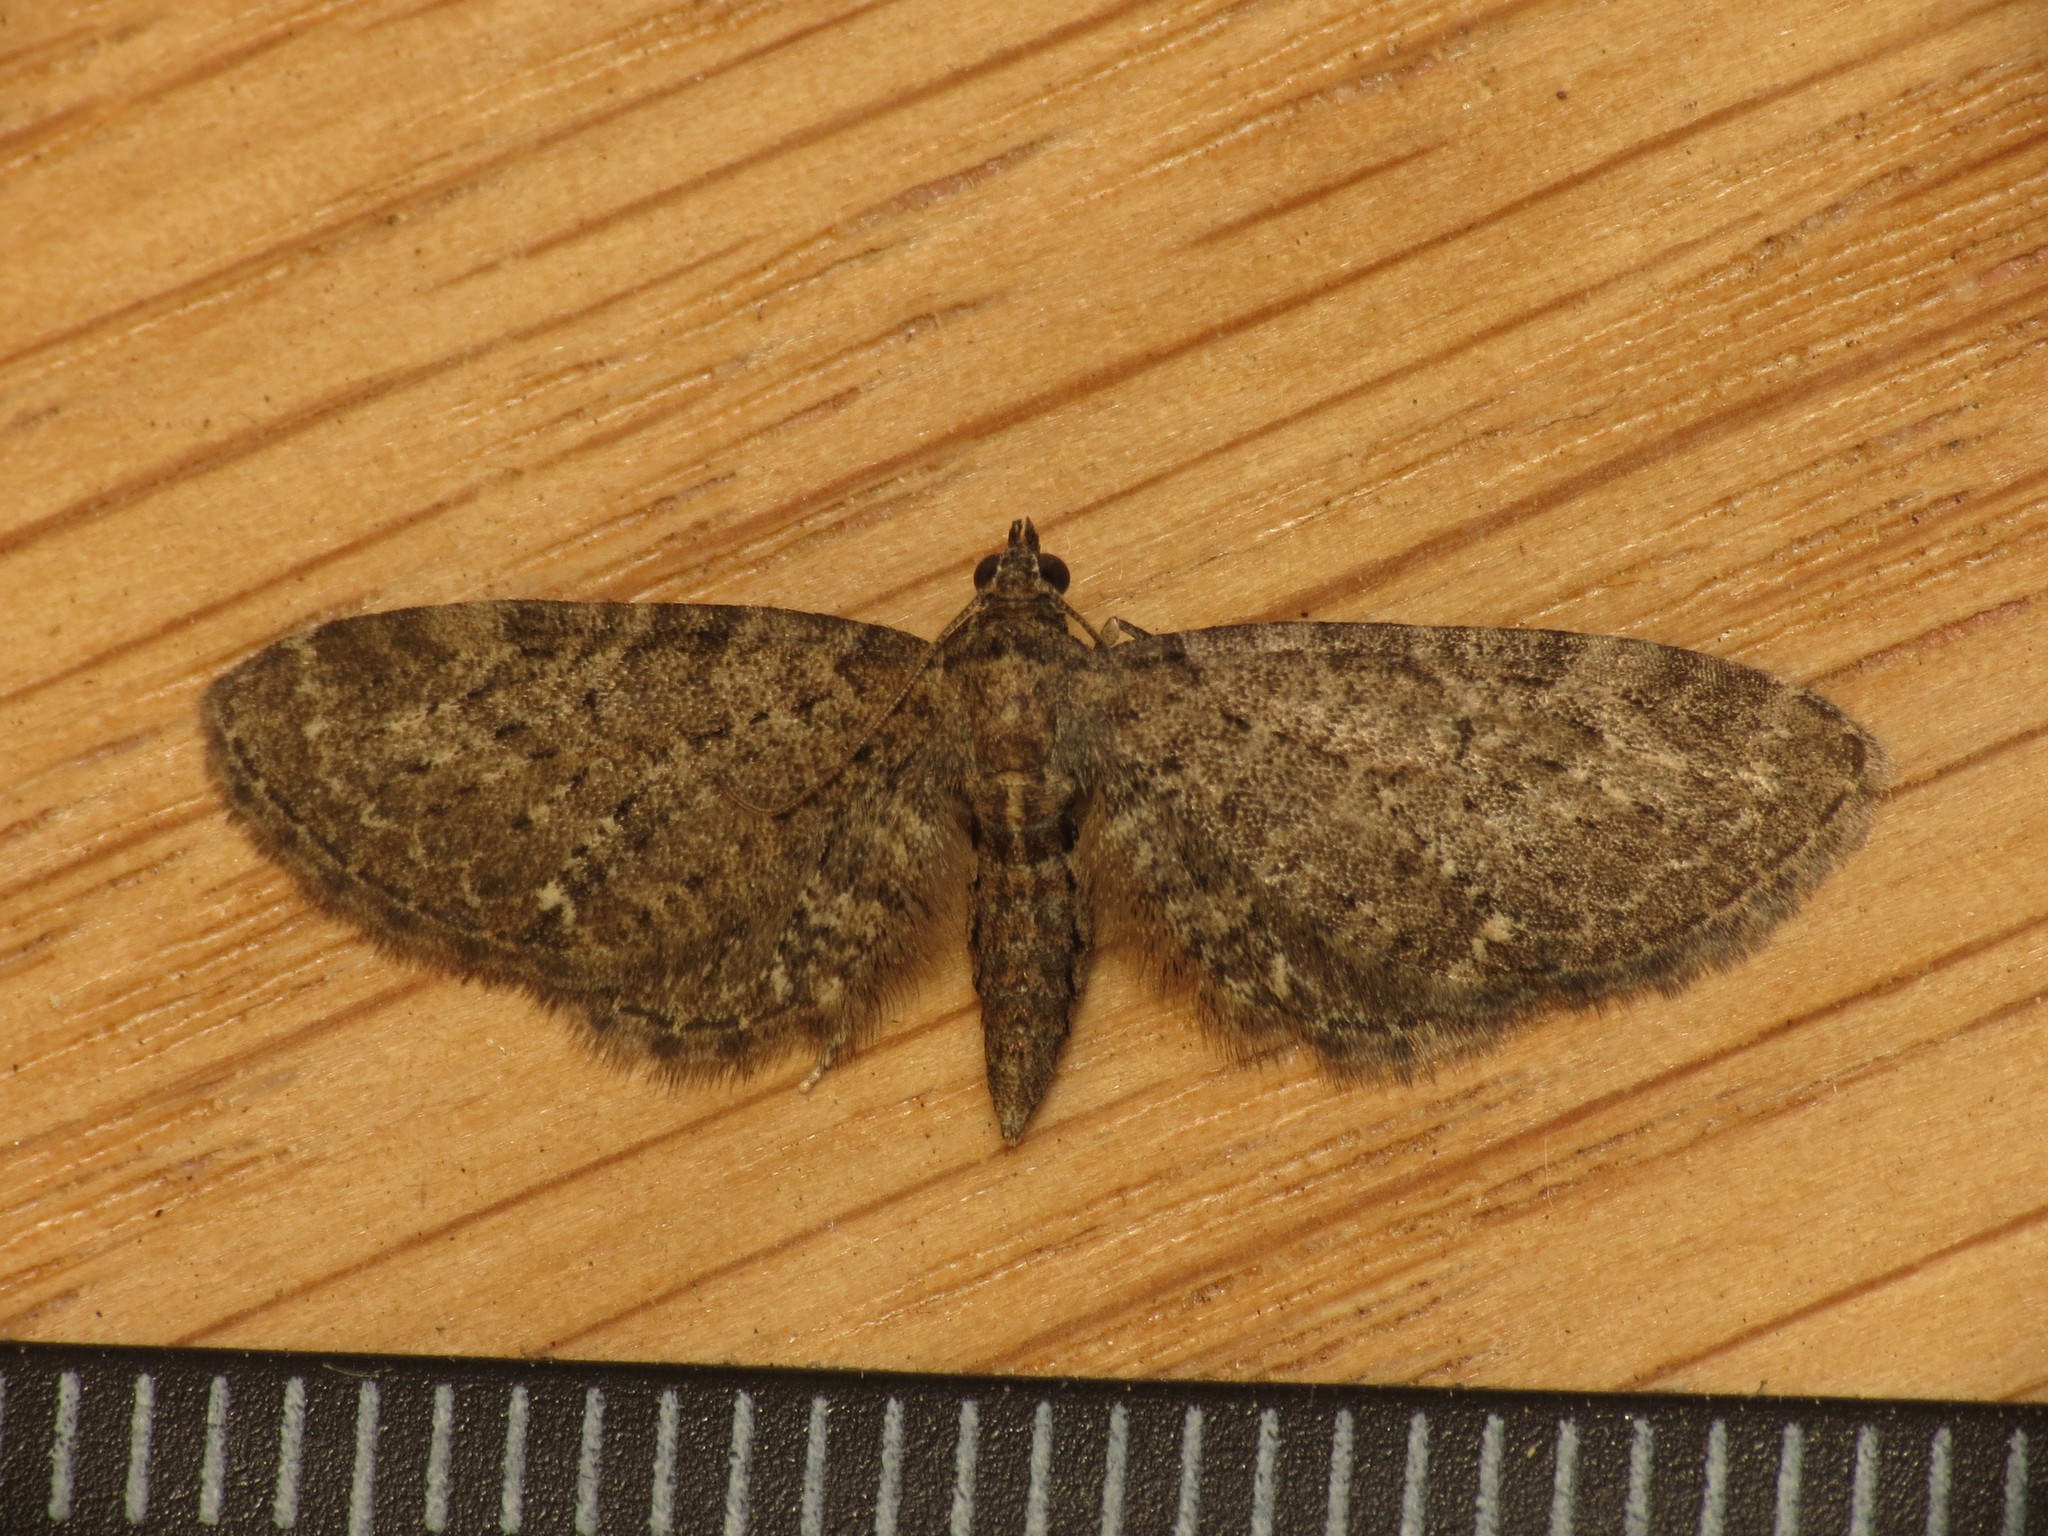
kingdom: Animalia
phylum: Arthropoda
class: Insecta
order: Lepidoptera
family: Geometridae
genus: Eupithecia
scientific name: Eupithecia vulgata
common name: Common pug
